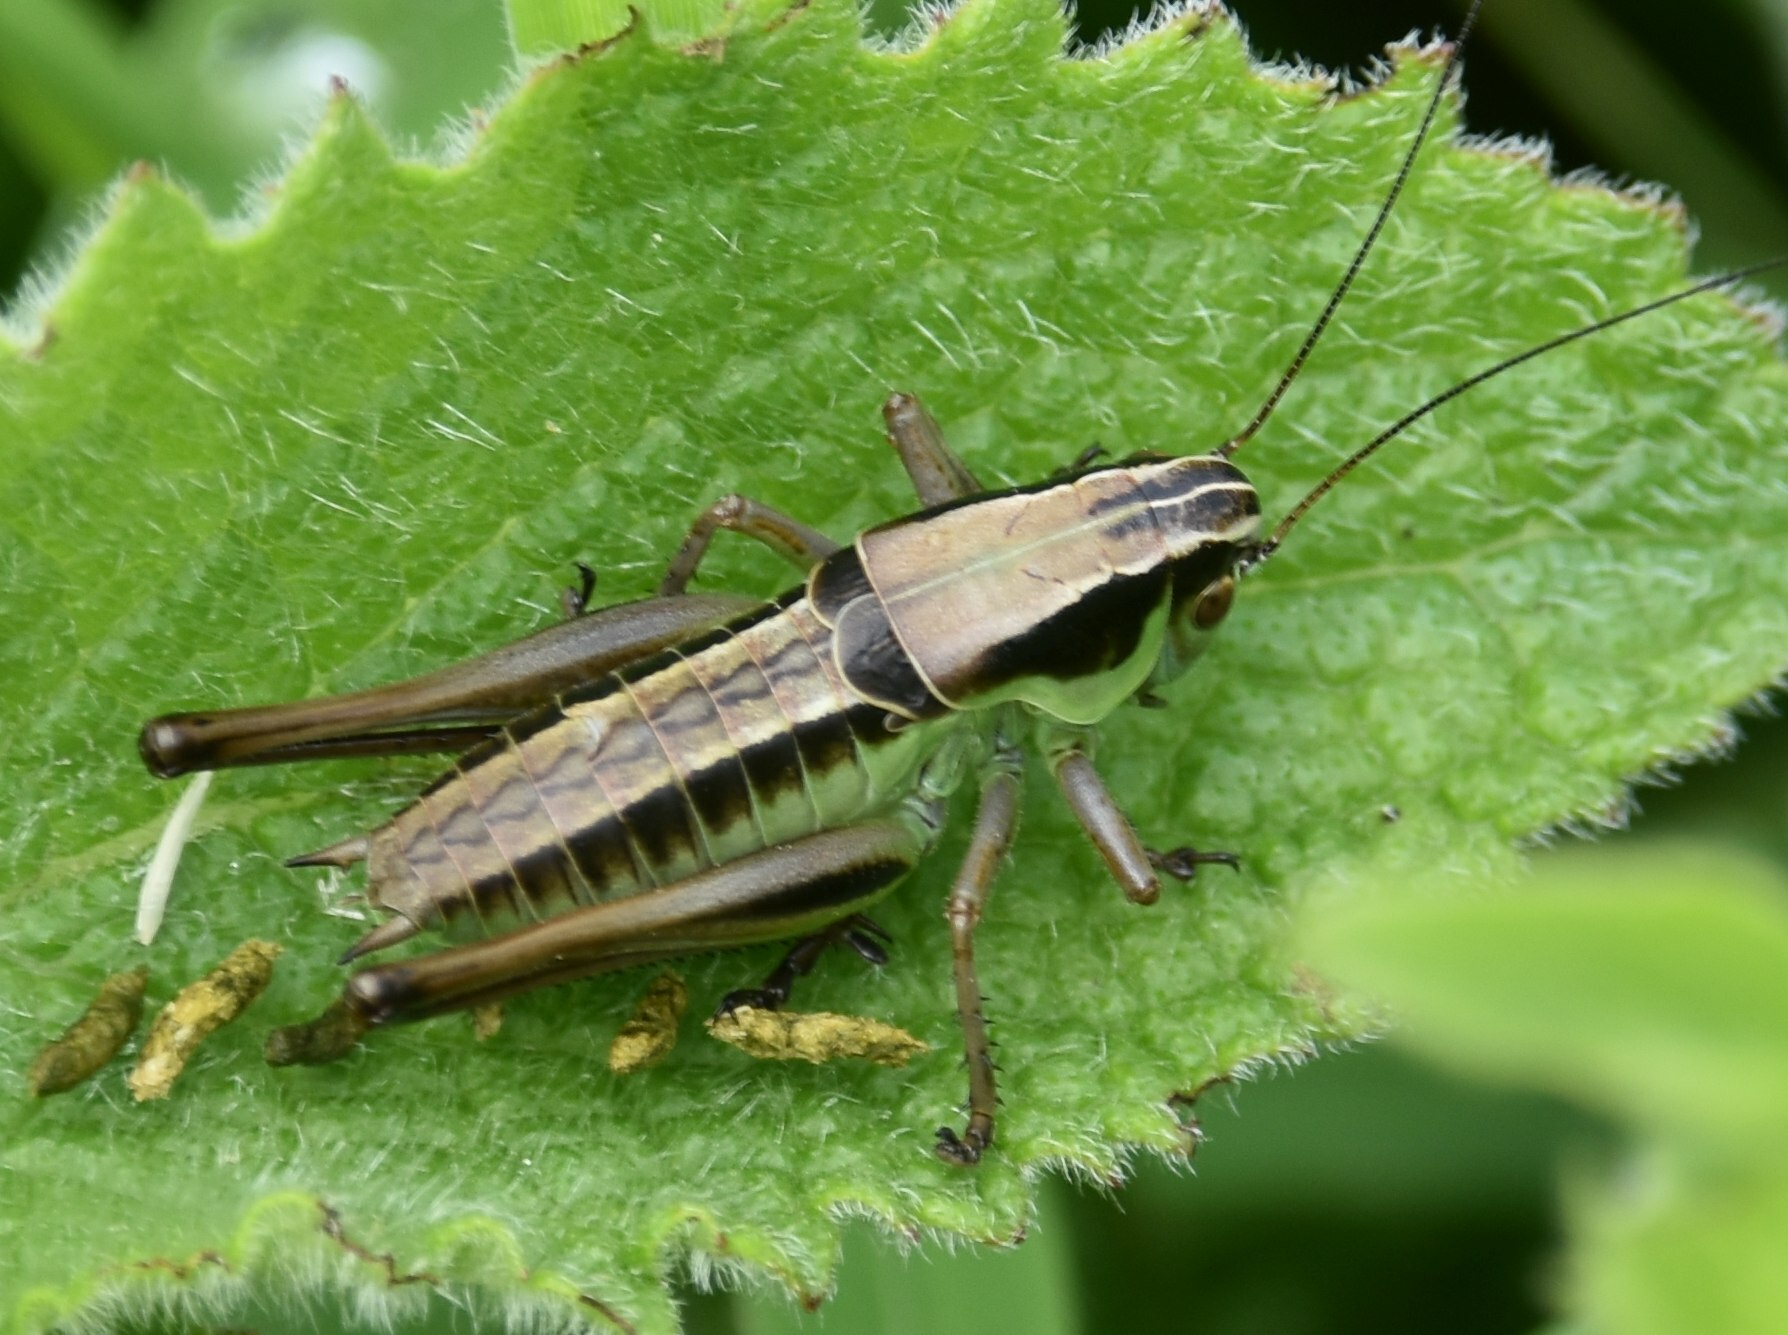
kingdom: Animalia
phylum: Arthropoda
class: Insecta
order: Orthoptera
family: Tettigoniidae
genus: Pholidoptera
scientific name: Pholidoptera frivaldszkyi
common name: Green dark bush-cricket
